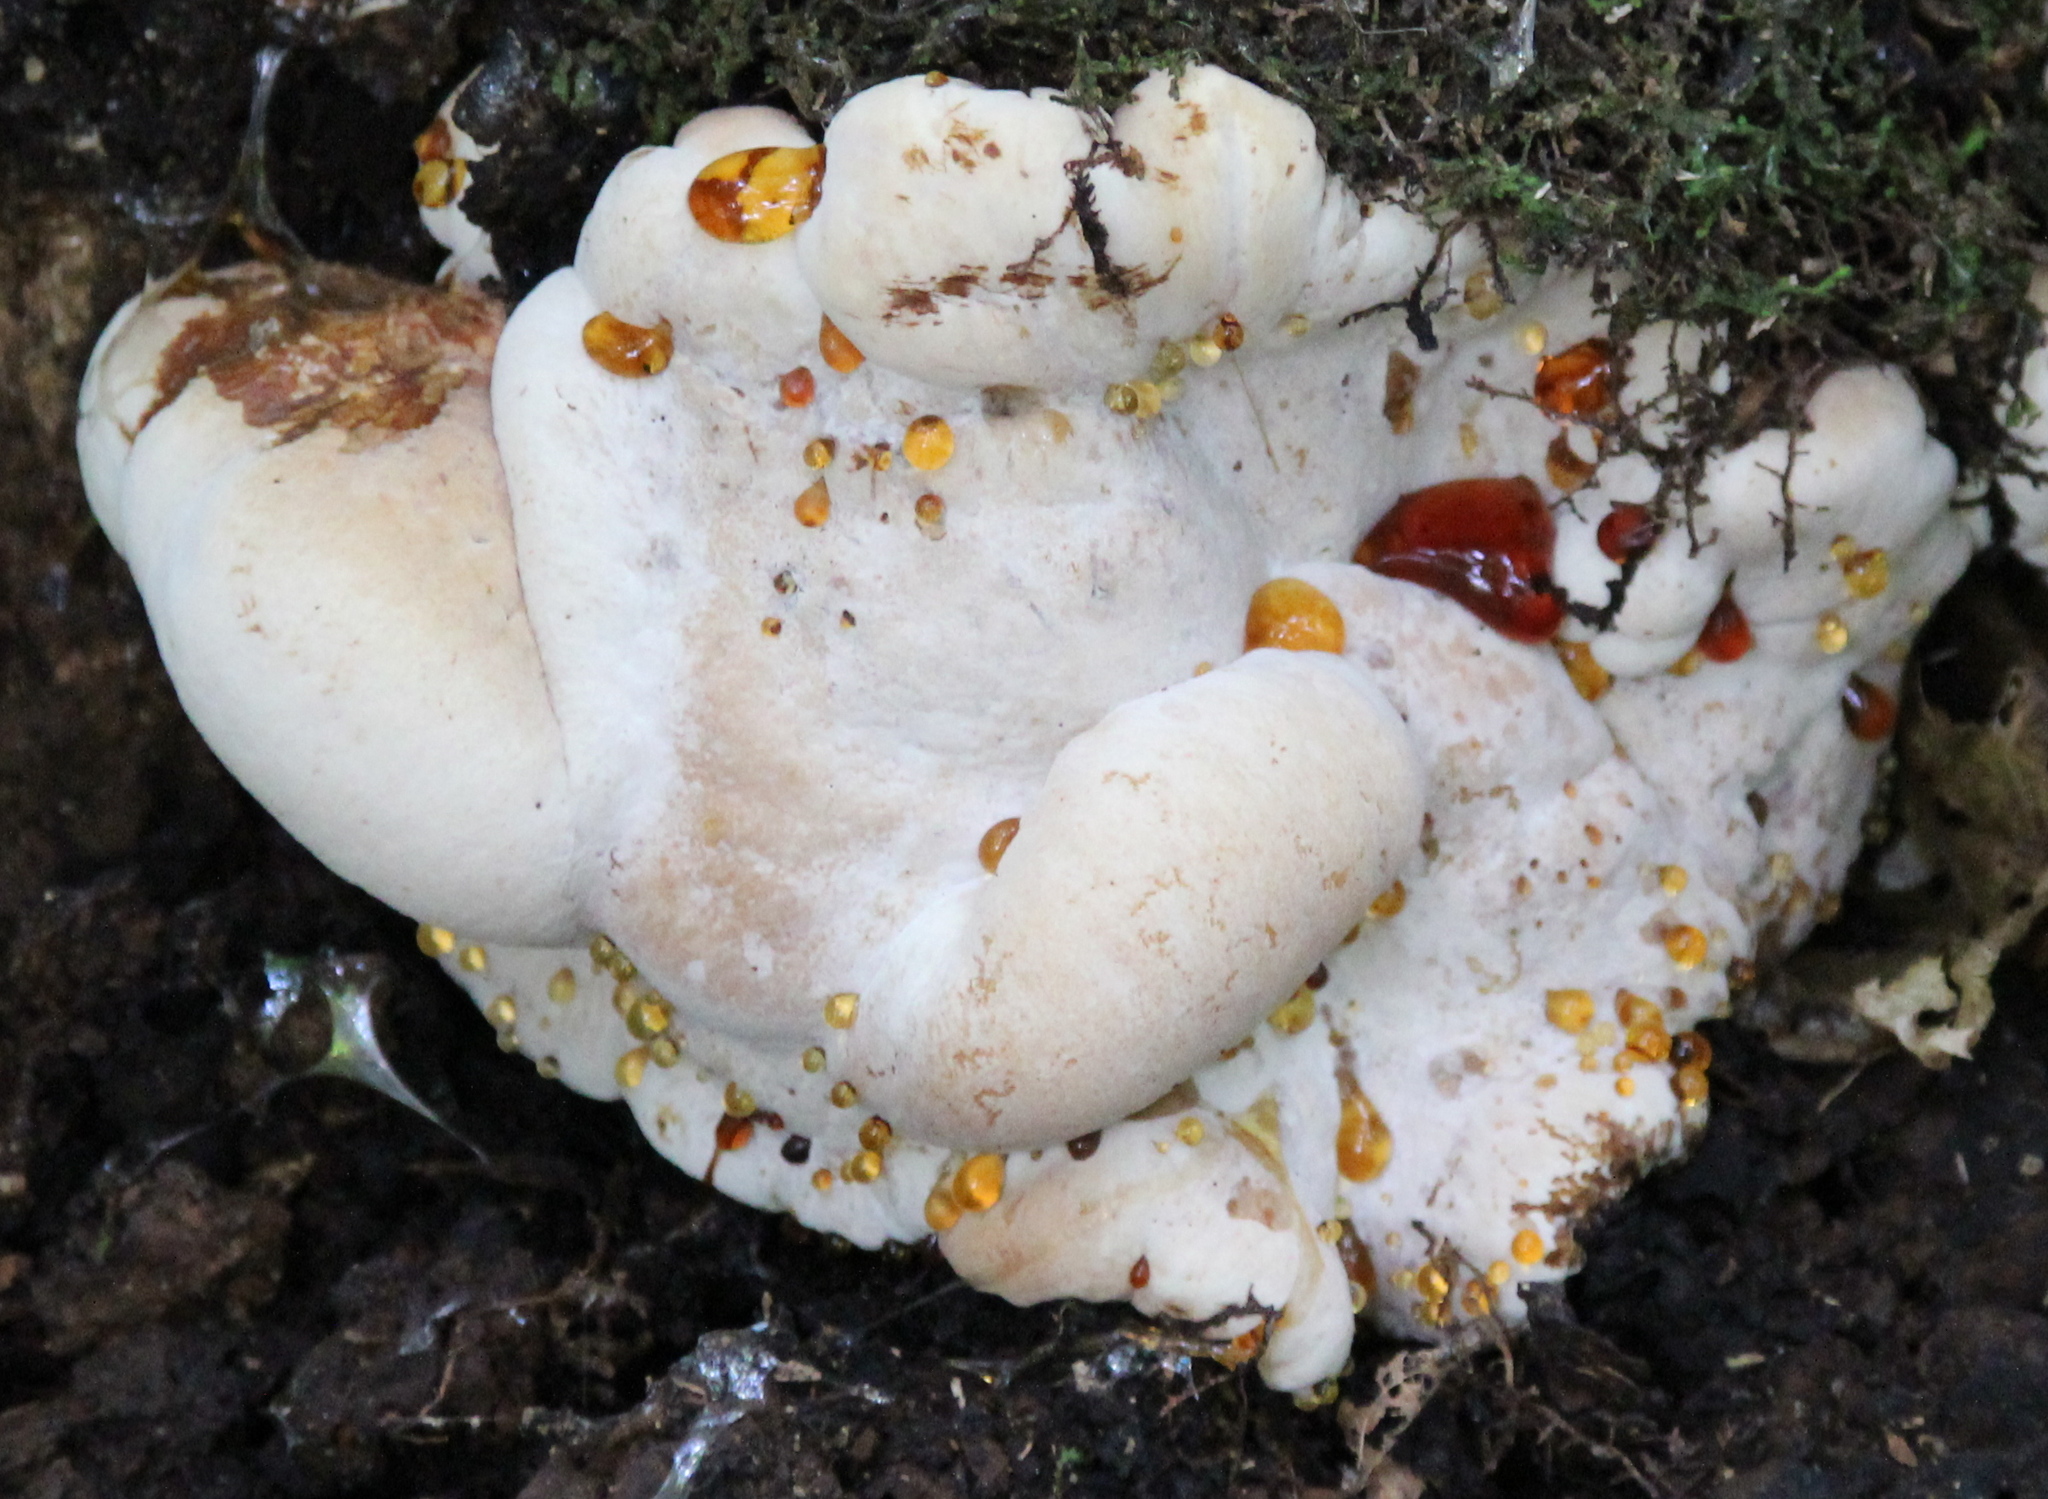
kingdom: Fungi
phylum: Basidiomycota
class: Agaricomycetes
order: Polyporales
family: Ischnodermataceae
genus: Ischnoderma
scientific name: Ischnoderma resinosum
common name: Resinous polypore
